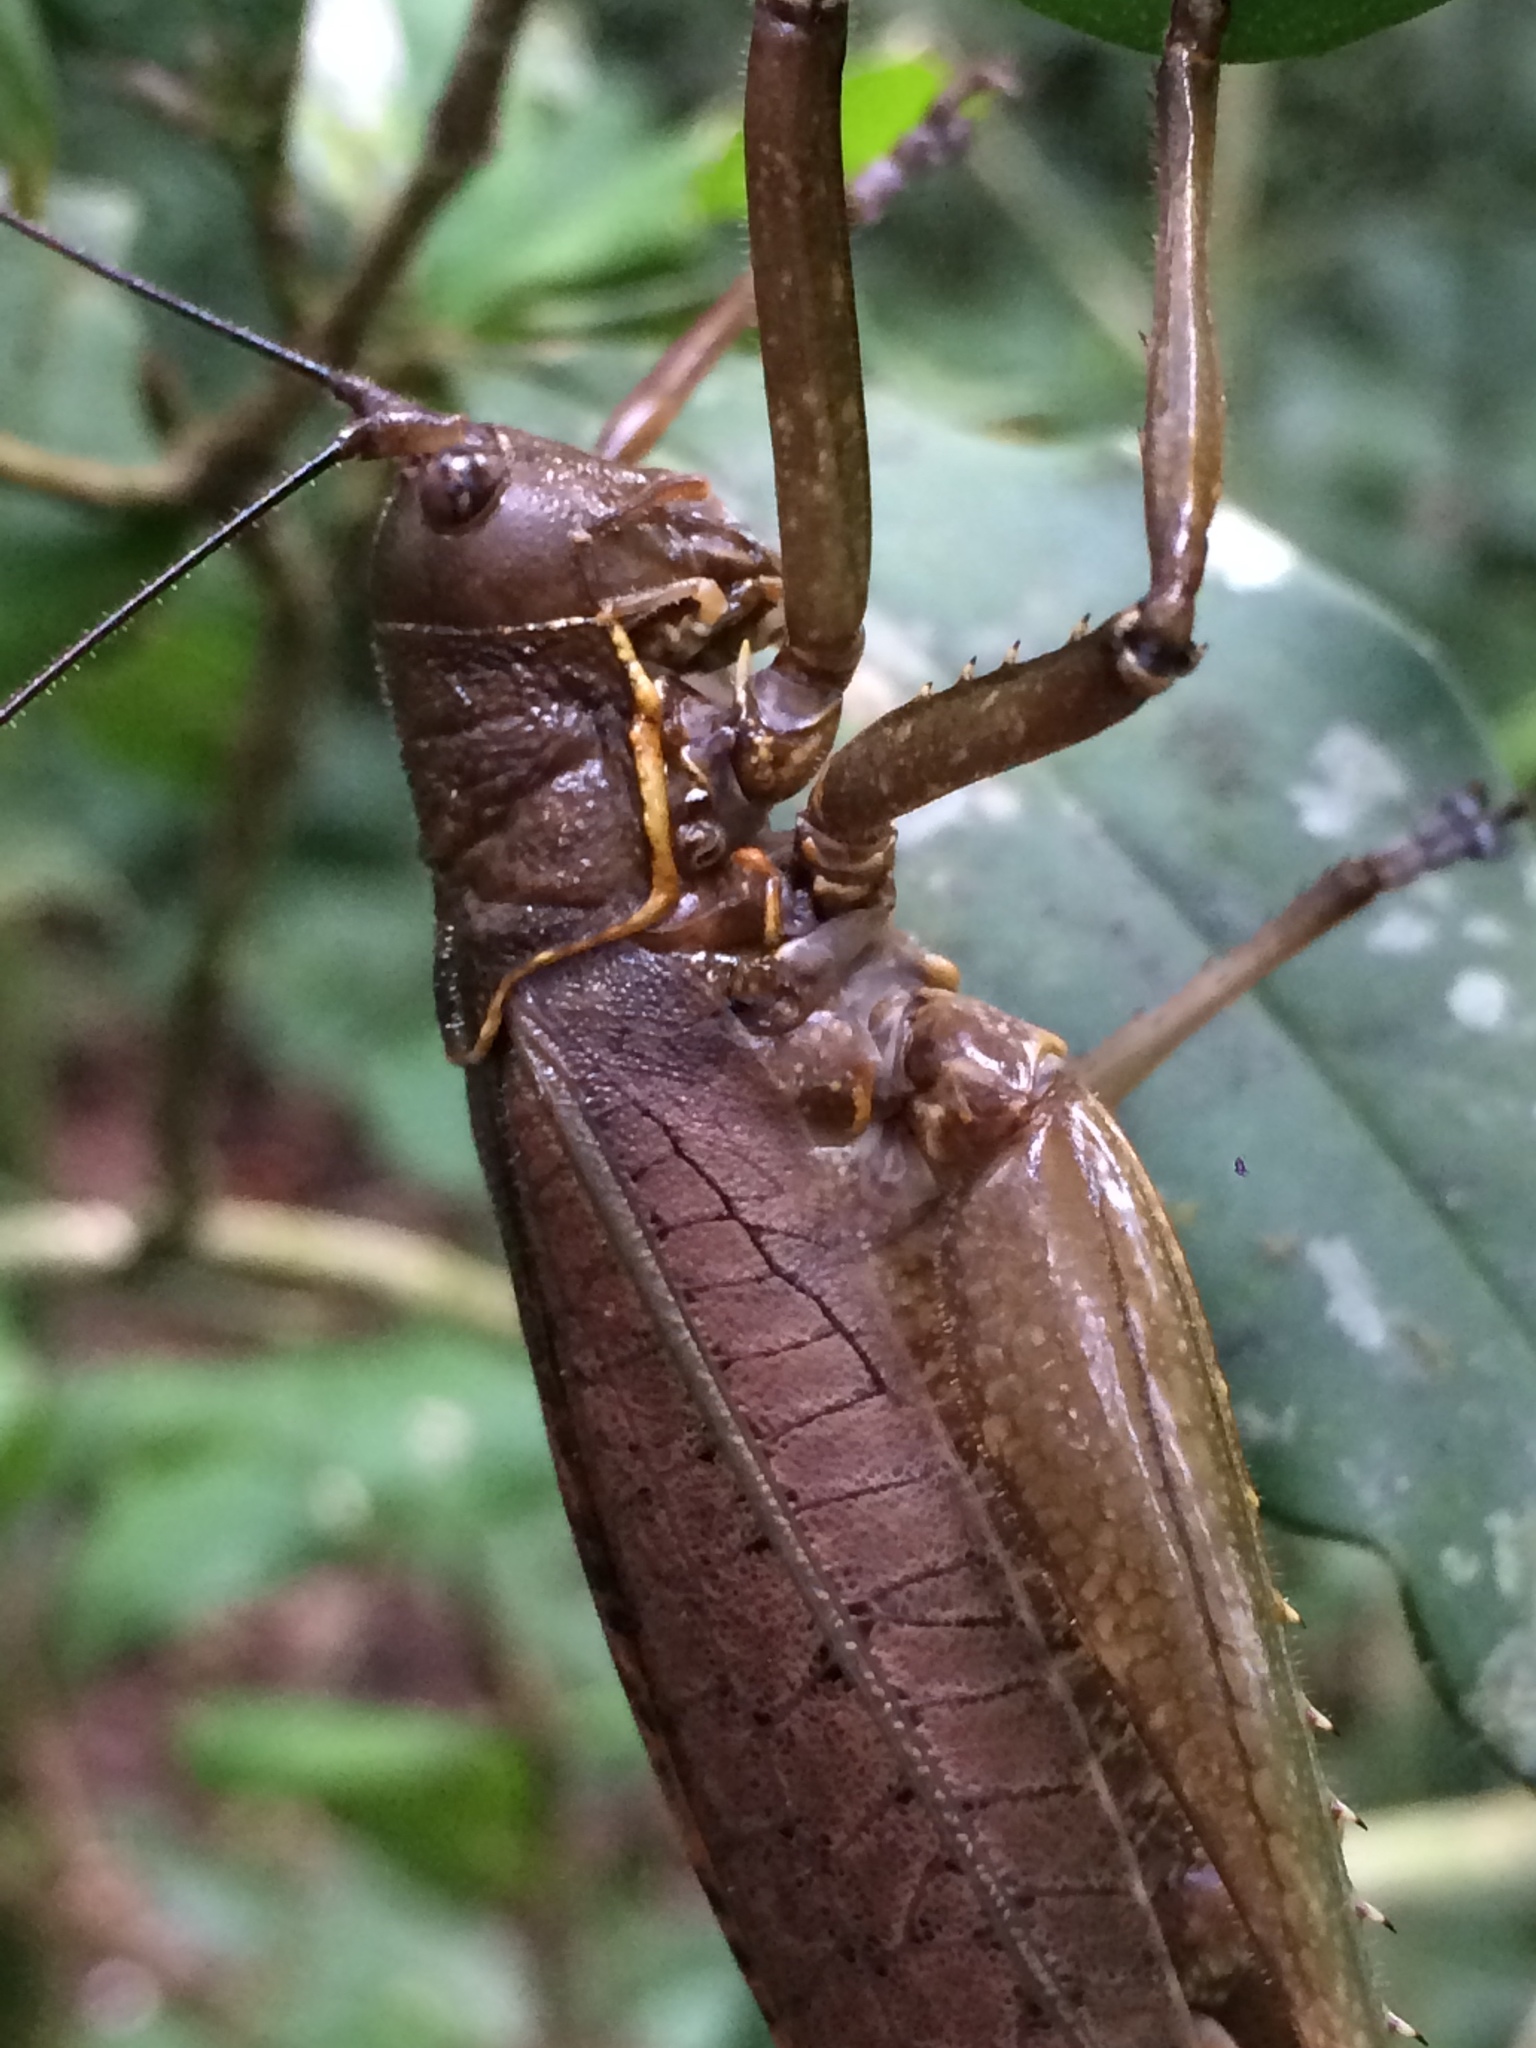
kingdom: Animalia
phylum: Arthropoda
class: Insecta
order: Orthoptera
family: Tettigoniidae
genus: Meroncidius
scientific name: Meroncidius flavolimbatus
